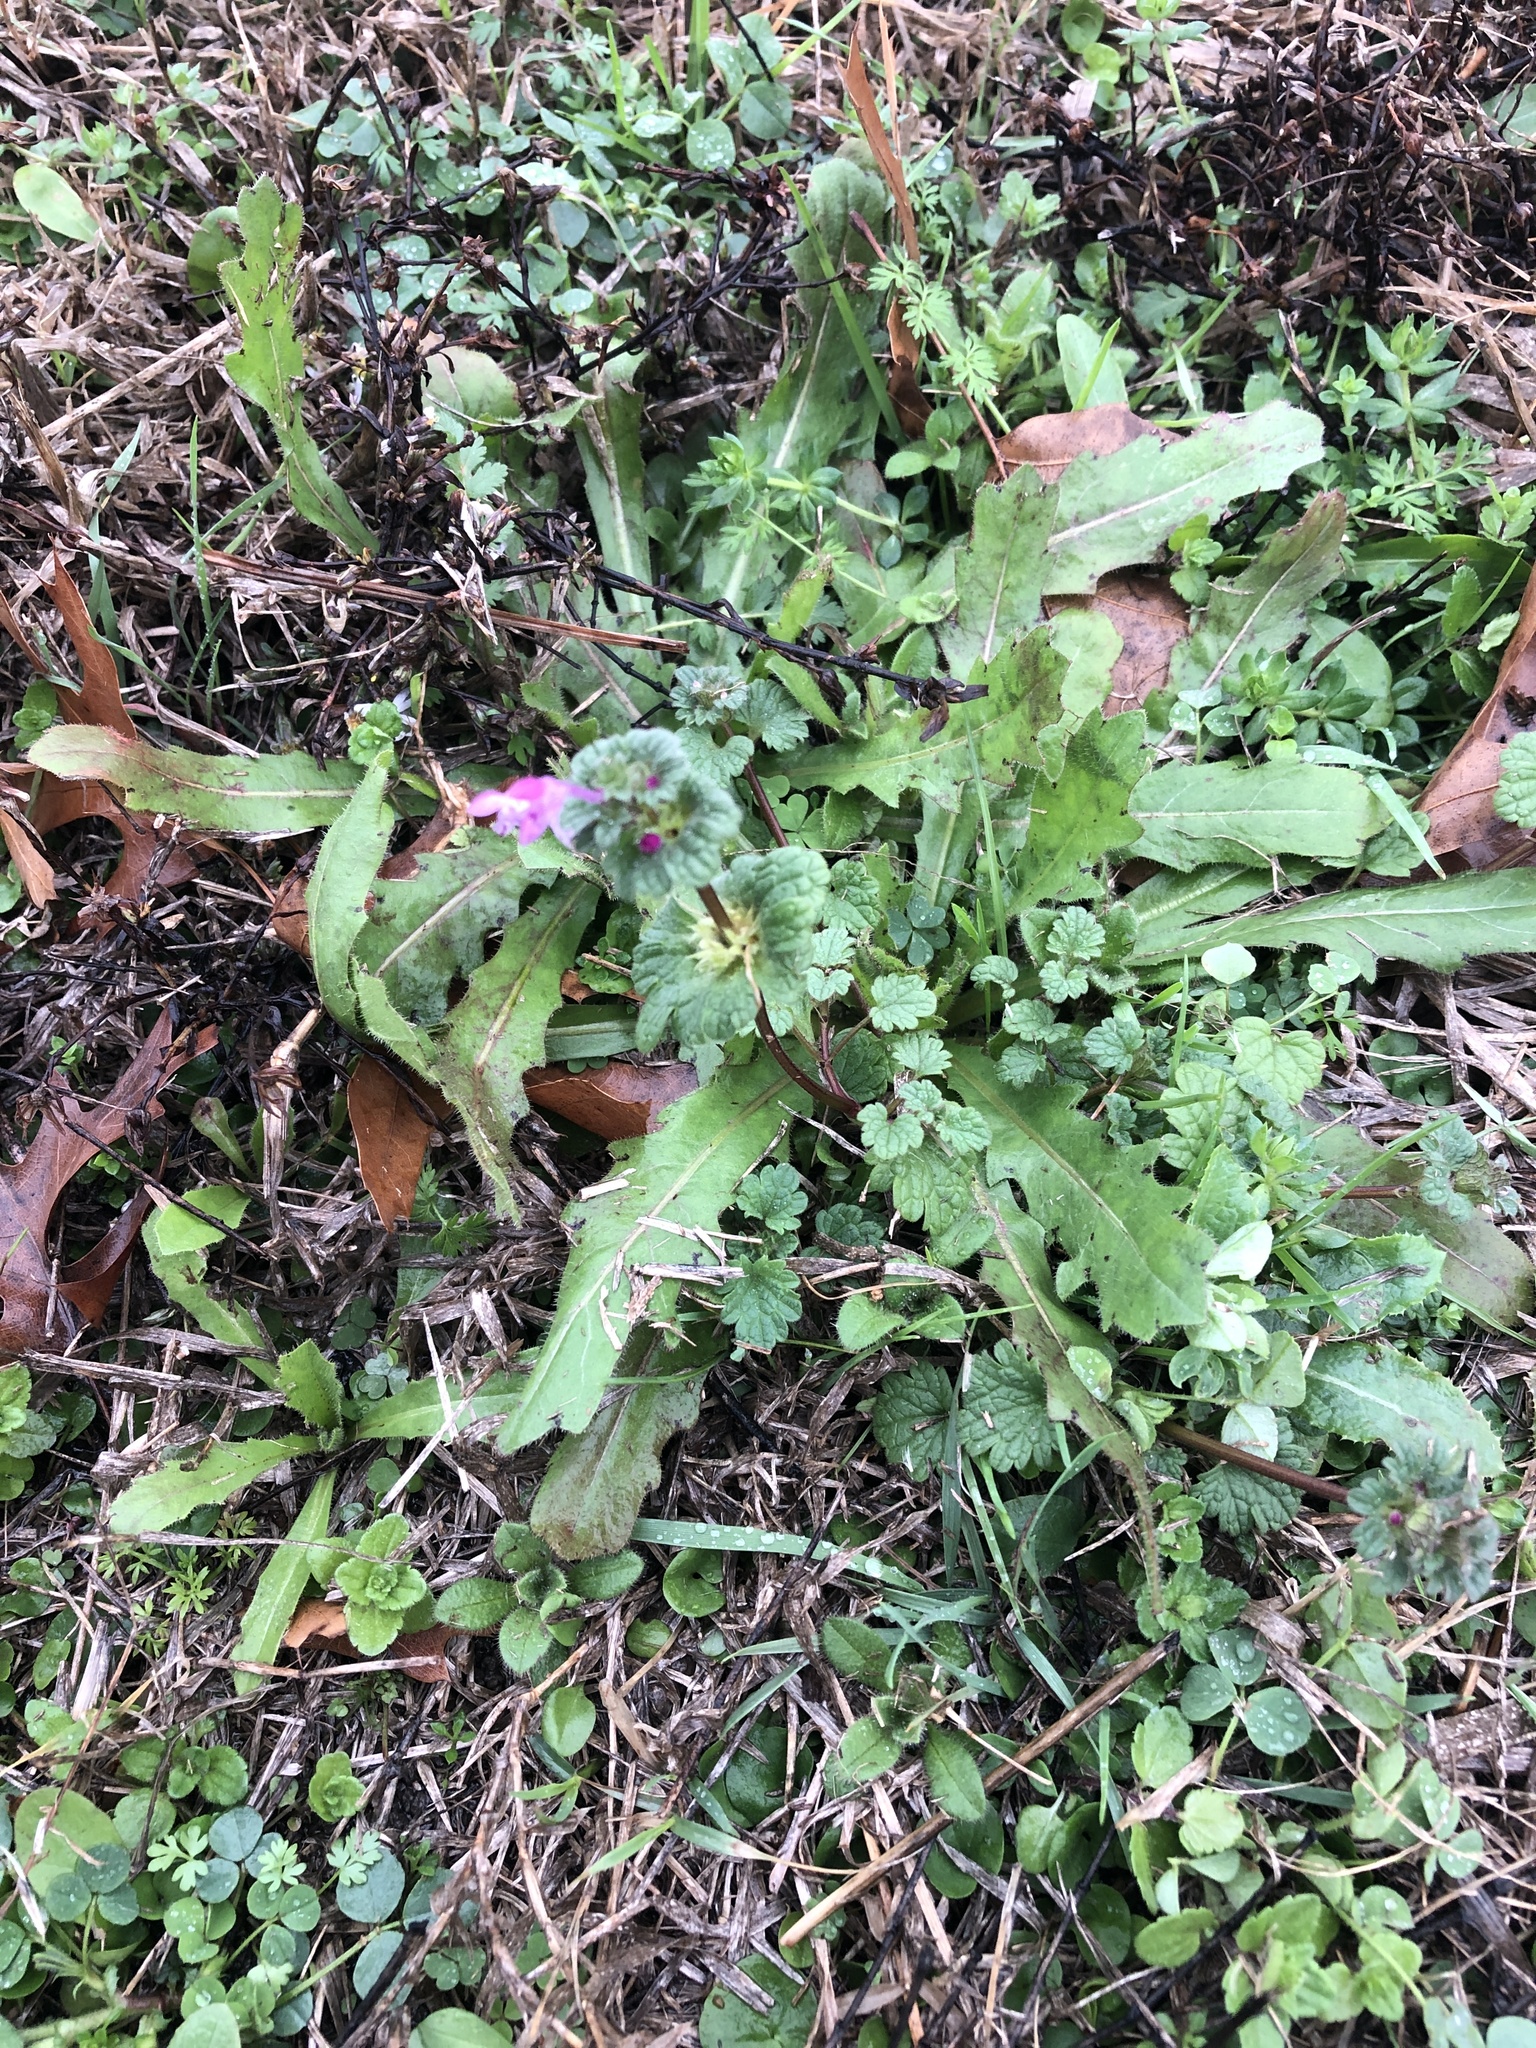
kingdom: Plantae
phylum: Tracheophyta
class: Magnoliopsida
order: Lamiales
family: Lamiaceae
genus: Lamium
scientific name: Lamium amplexicaule
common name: Henbit dead-nettle
